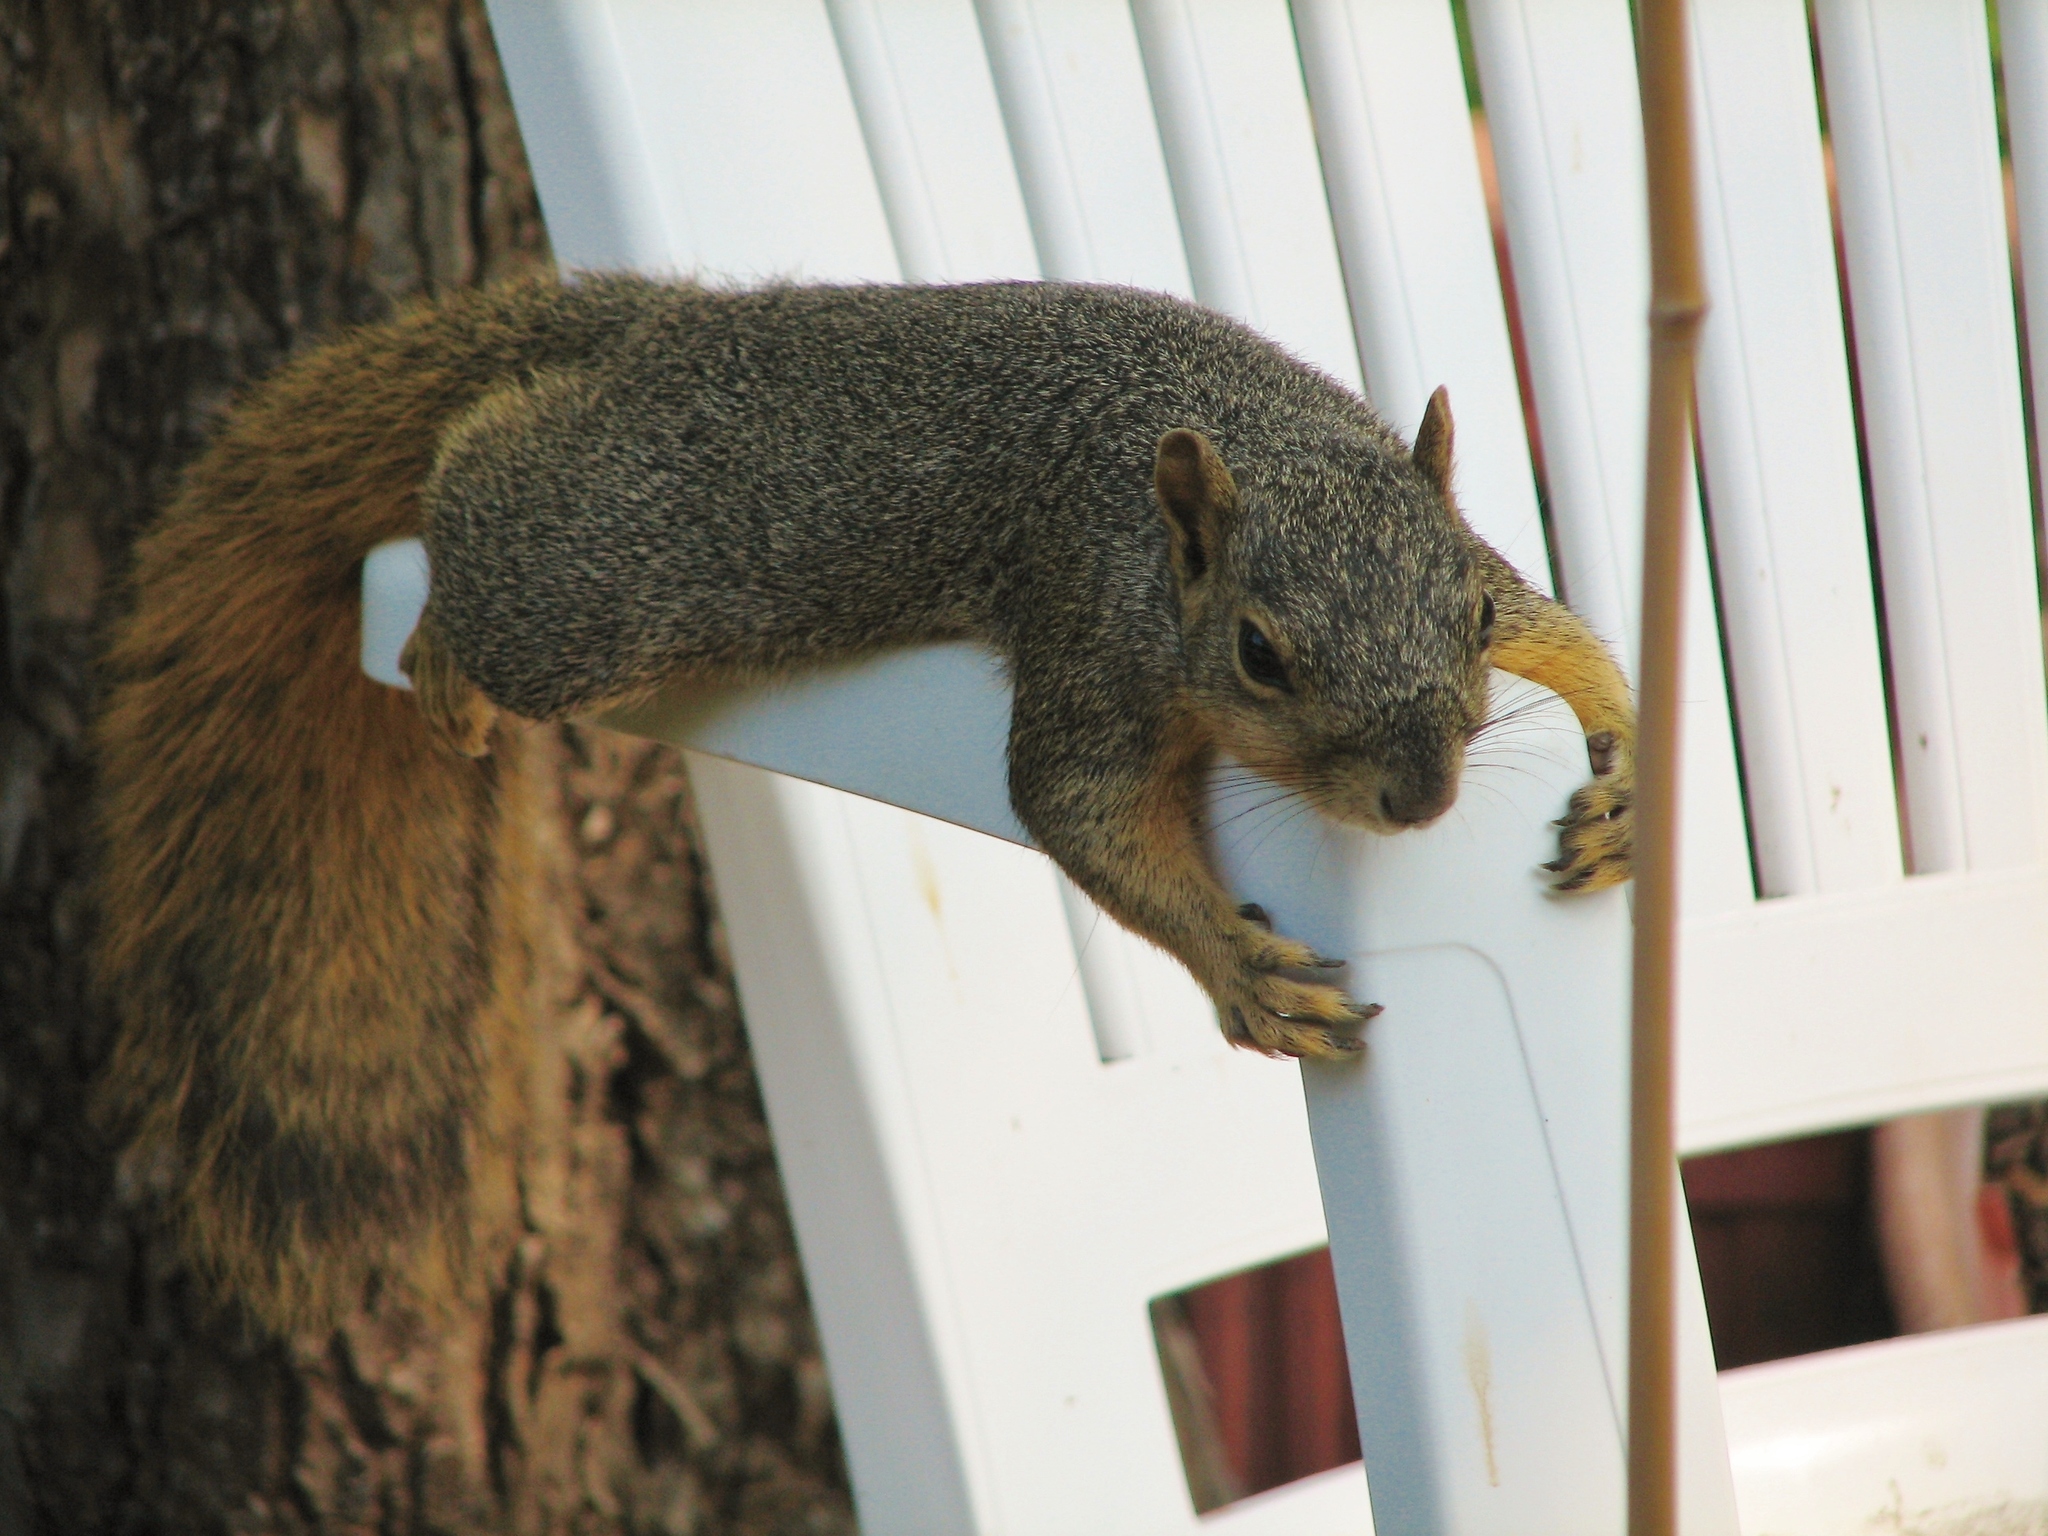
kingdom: Animalia
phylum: Chordata
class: Mammalia
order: Rodentia
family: Sciuridae
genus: Sciurus
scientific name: Sciurus niger
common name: Fox squirrel
